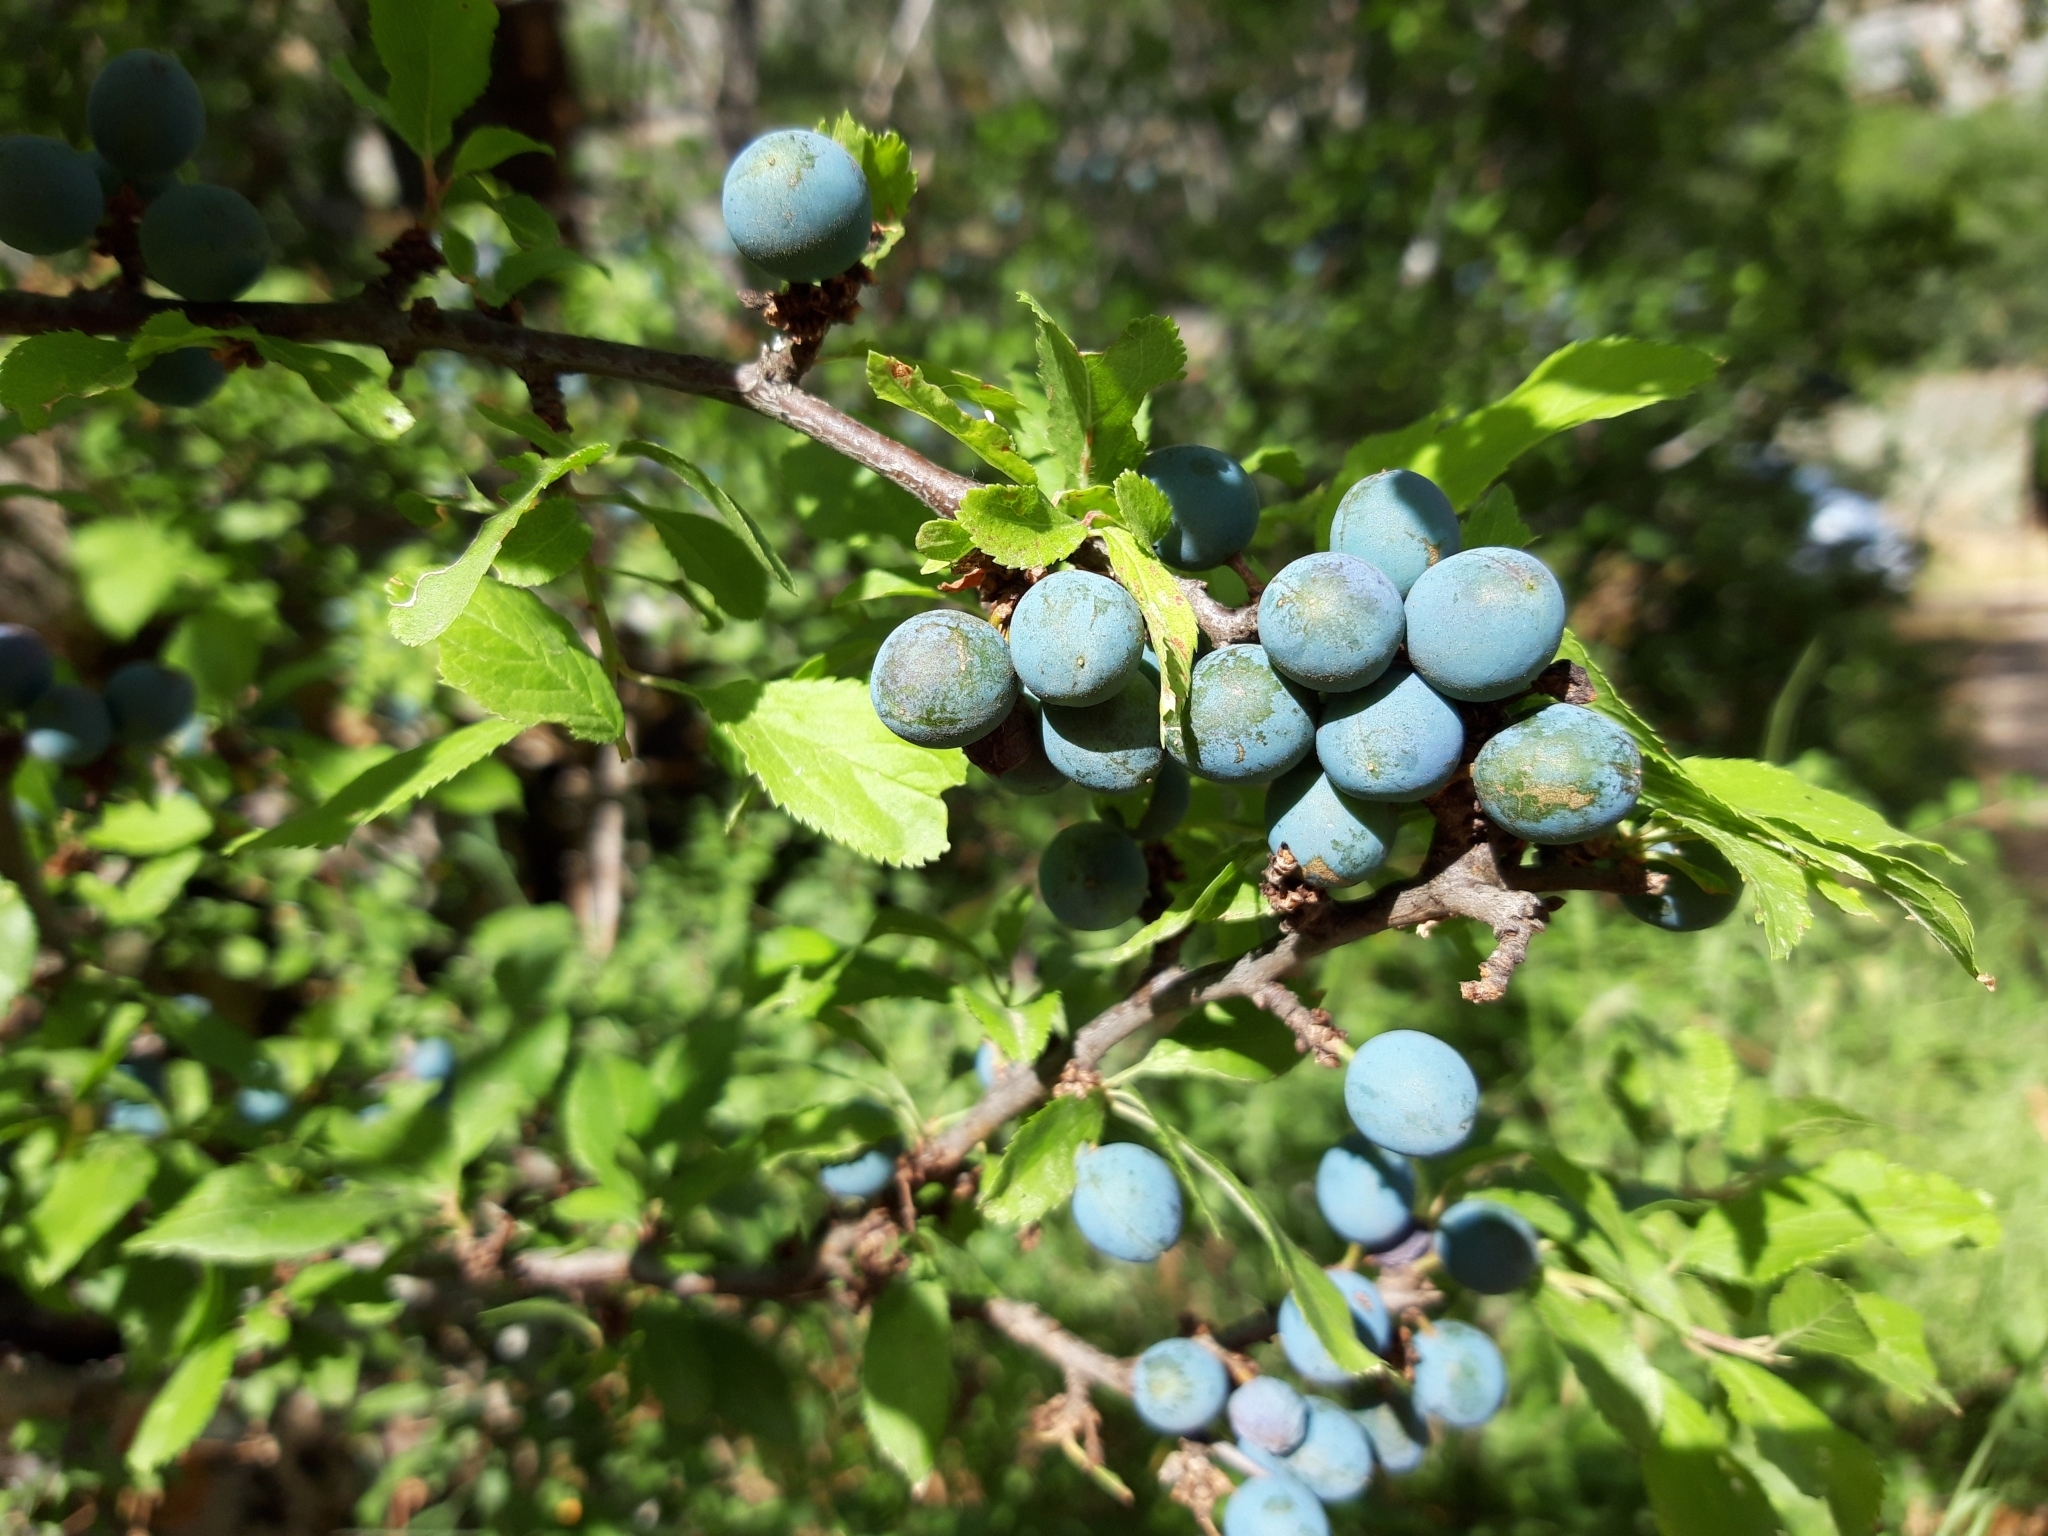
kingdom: Plantae
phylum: Tracheophyta
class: Magnoliopsida
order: Rosales
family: Rosaceae
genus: Prunus
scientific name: Prunus spinosa
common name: Blackthorn
